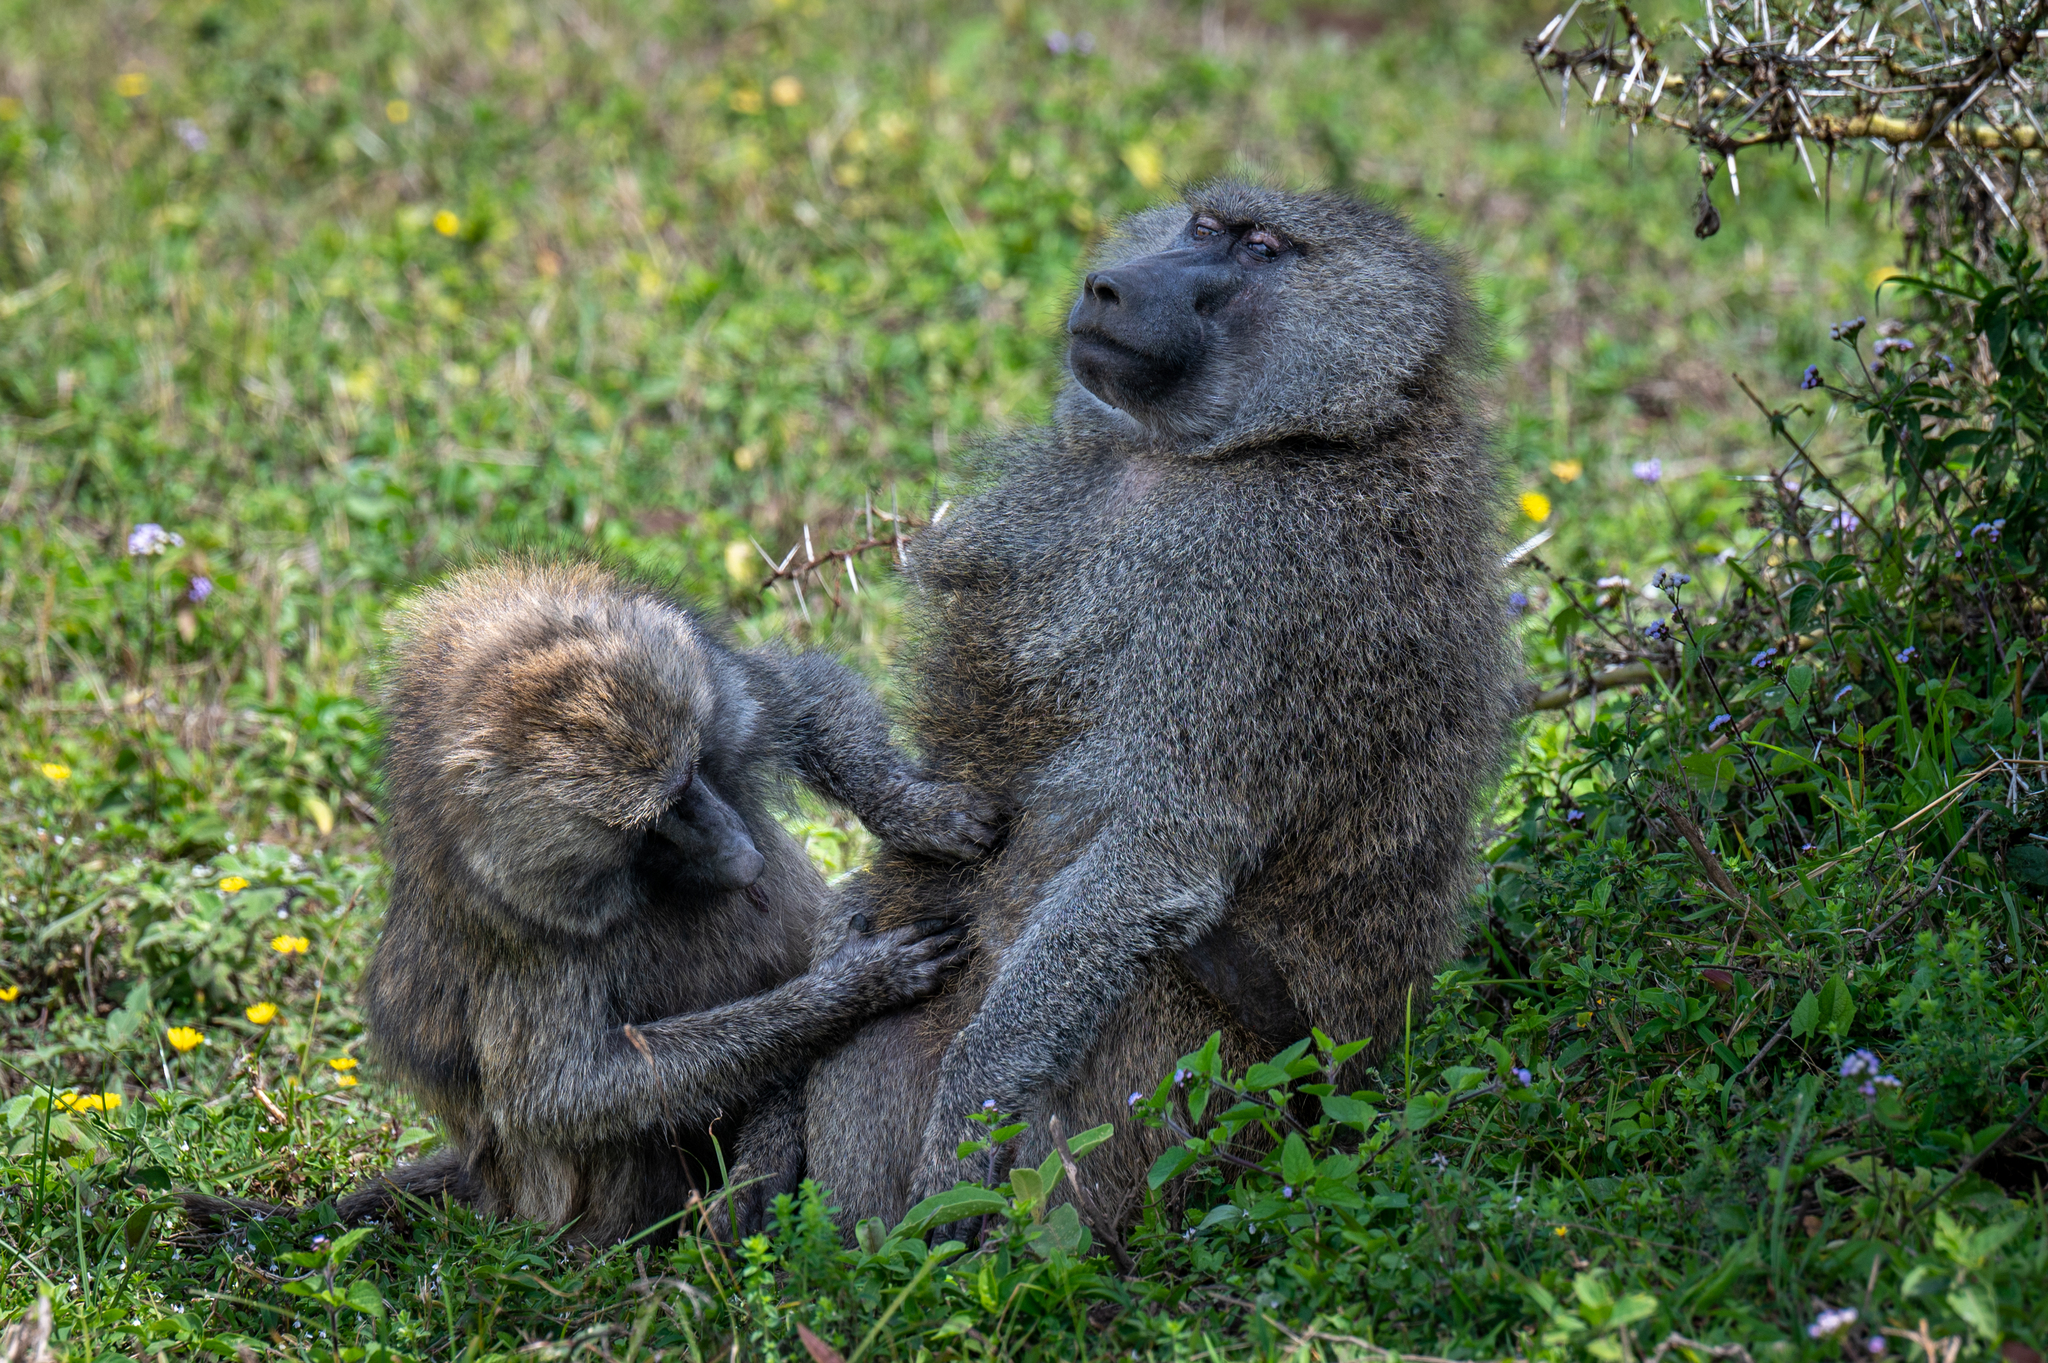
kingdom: Animalia
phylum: Chordata
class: Mammalia
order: Primates
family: Cercopithecidae
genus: Papio
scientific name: Papio anubis
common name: Olive baboon
